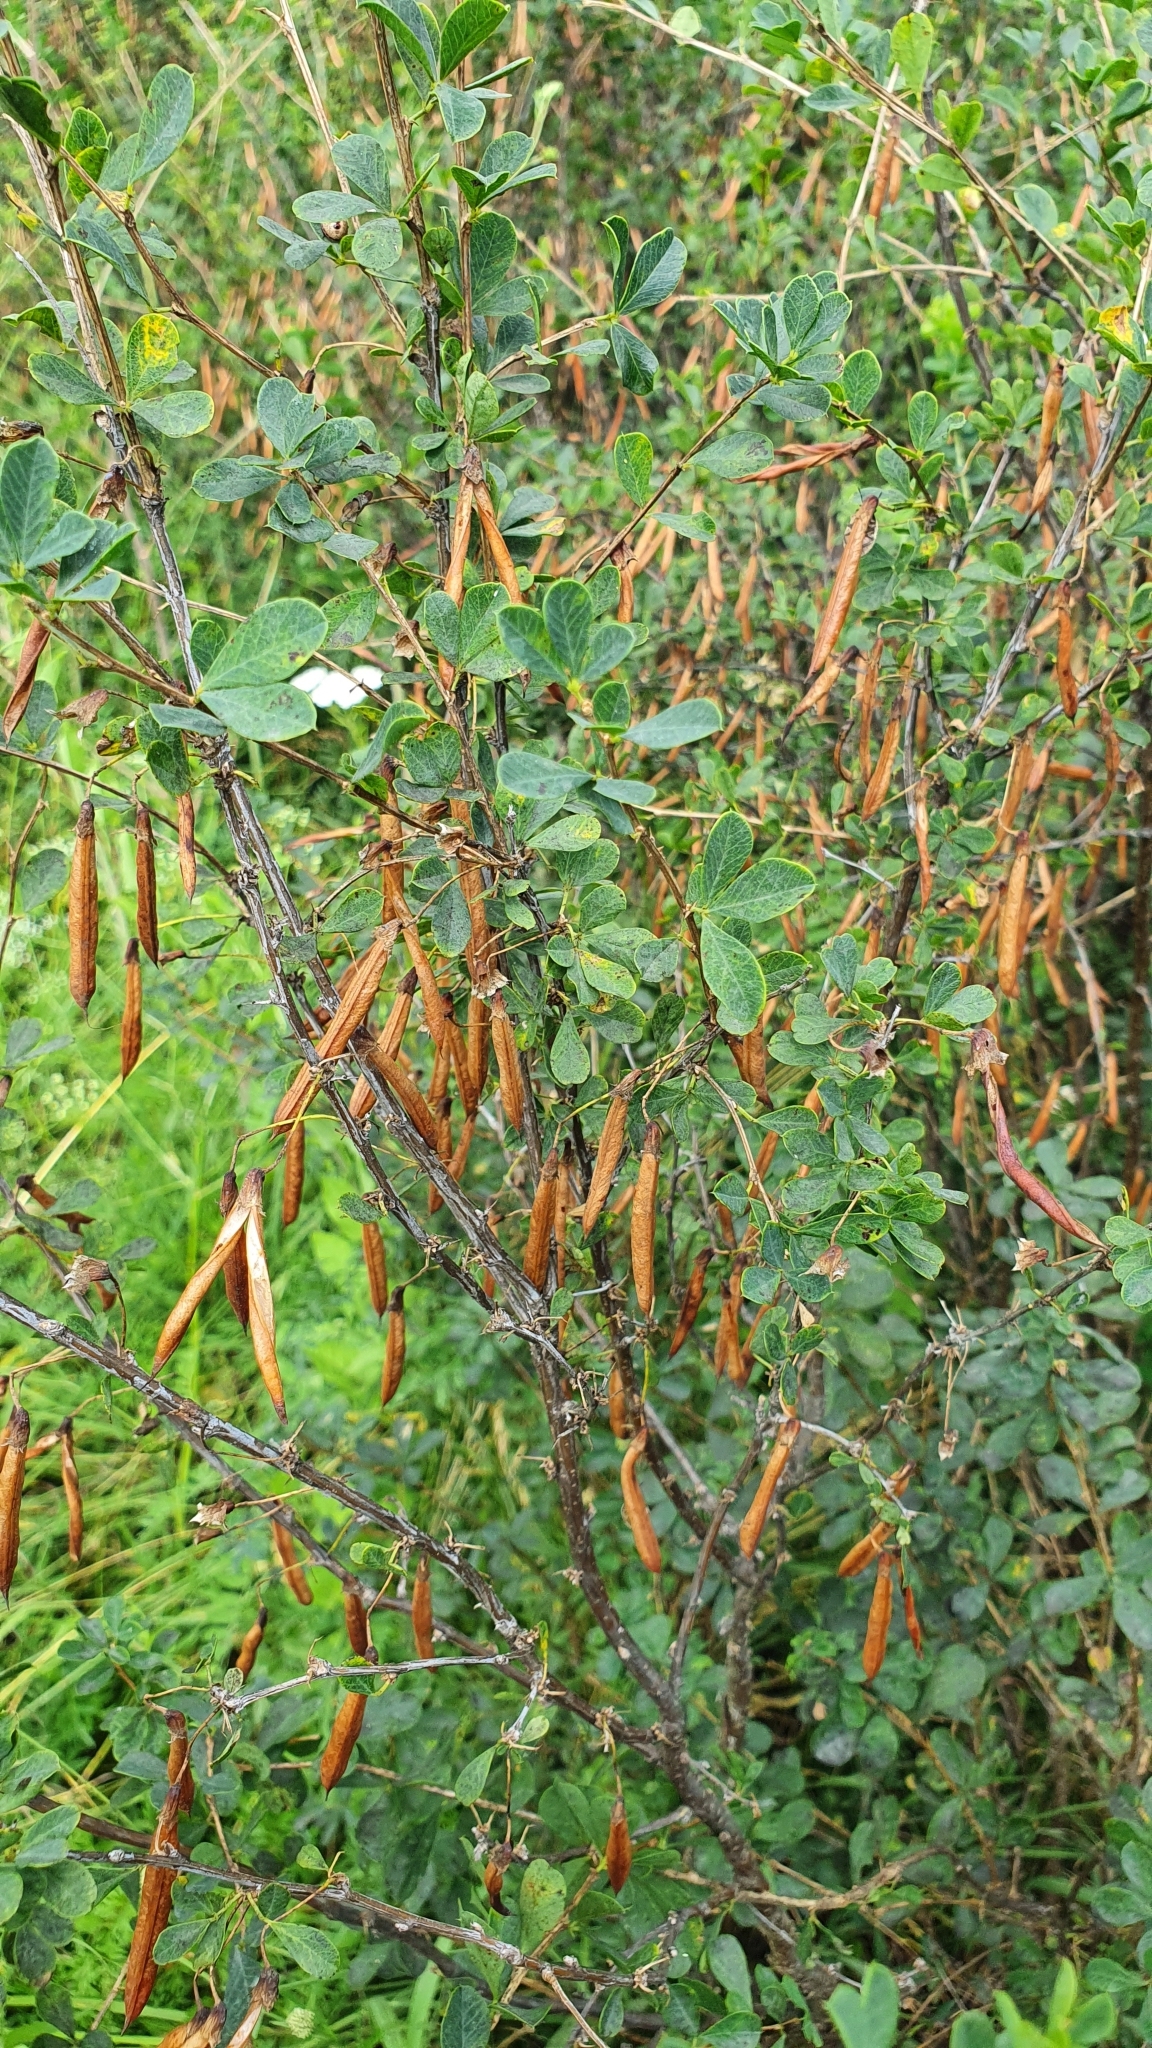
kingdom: Plantae
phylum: Tracheophyta
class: Magnoliopsida
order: Fabales
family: Fabaceae
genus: Caragana
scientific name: Caragana frutex
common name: Russian peashrub
